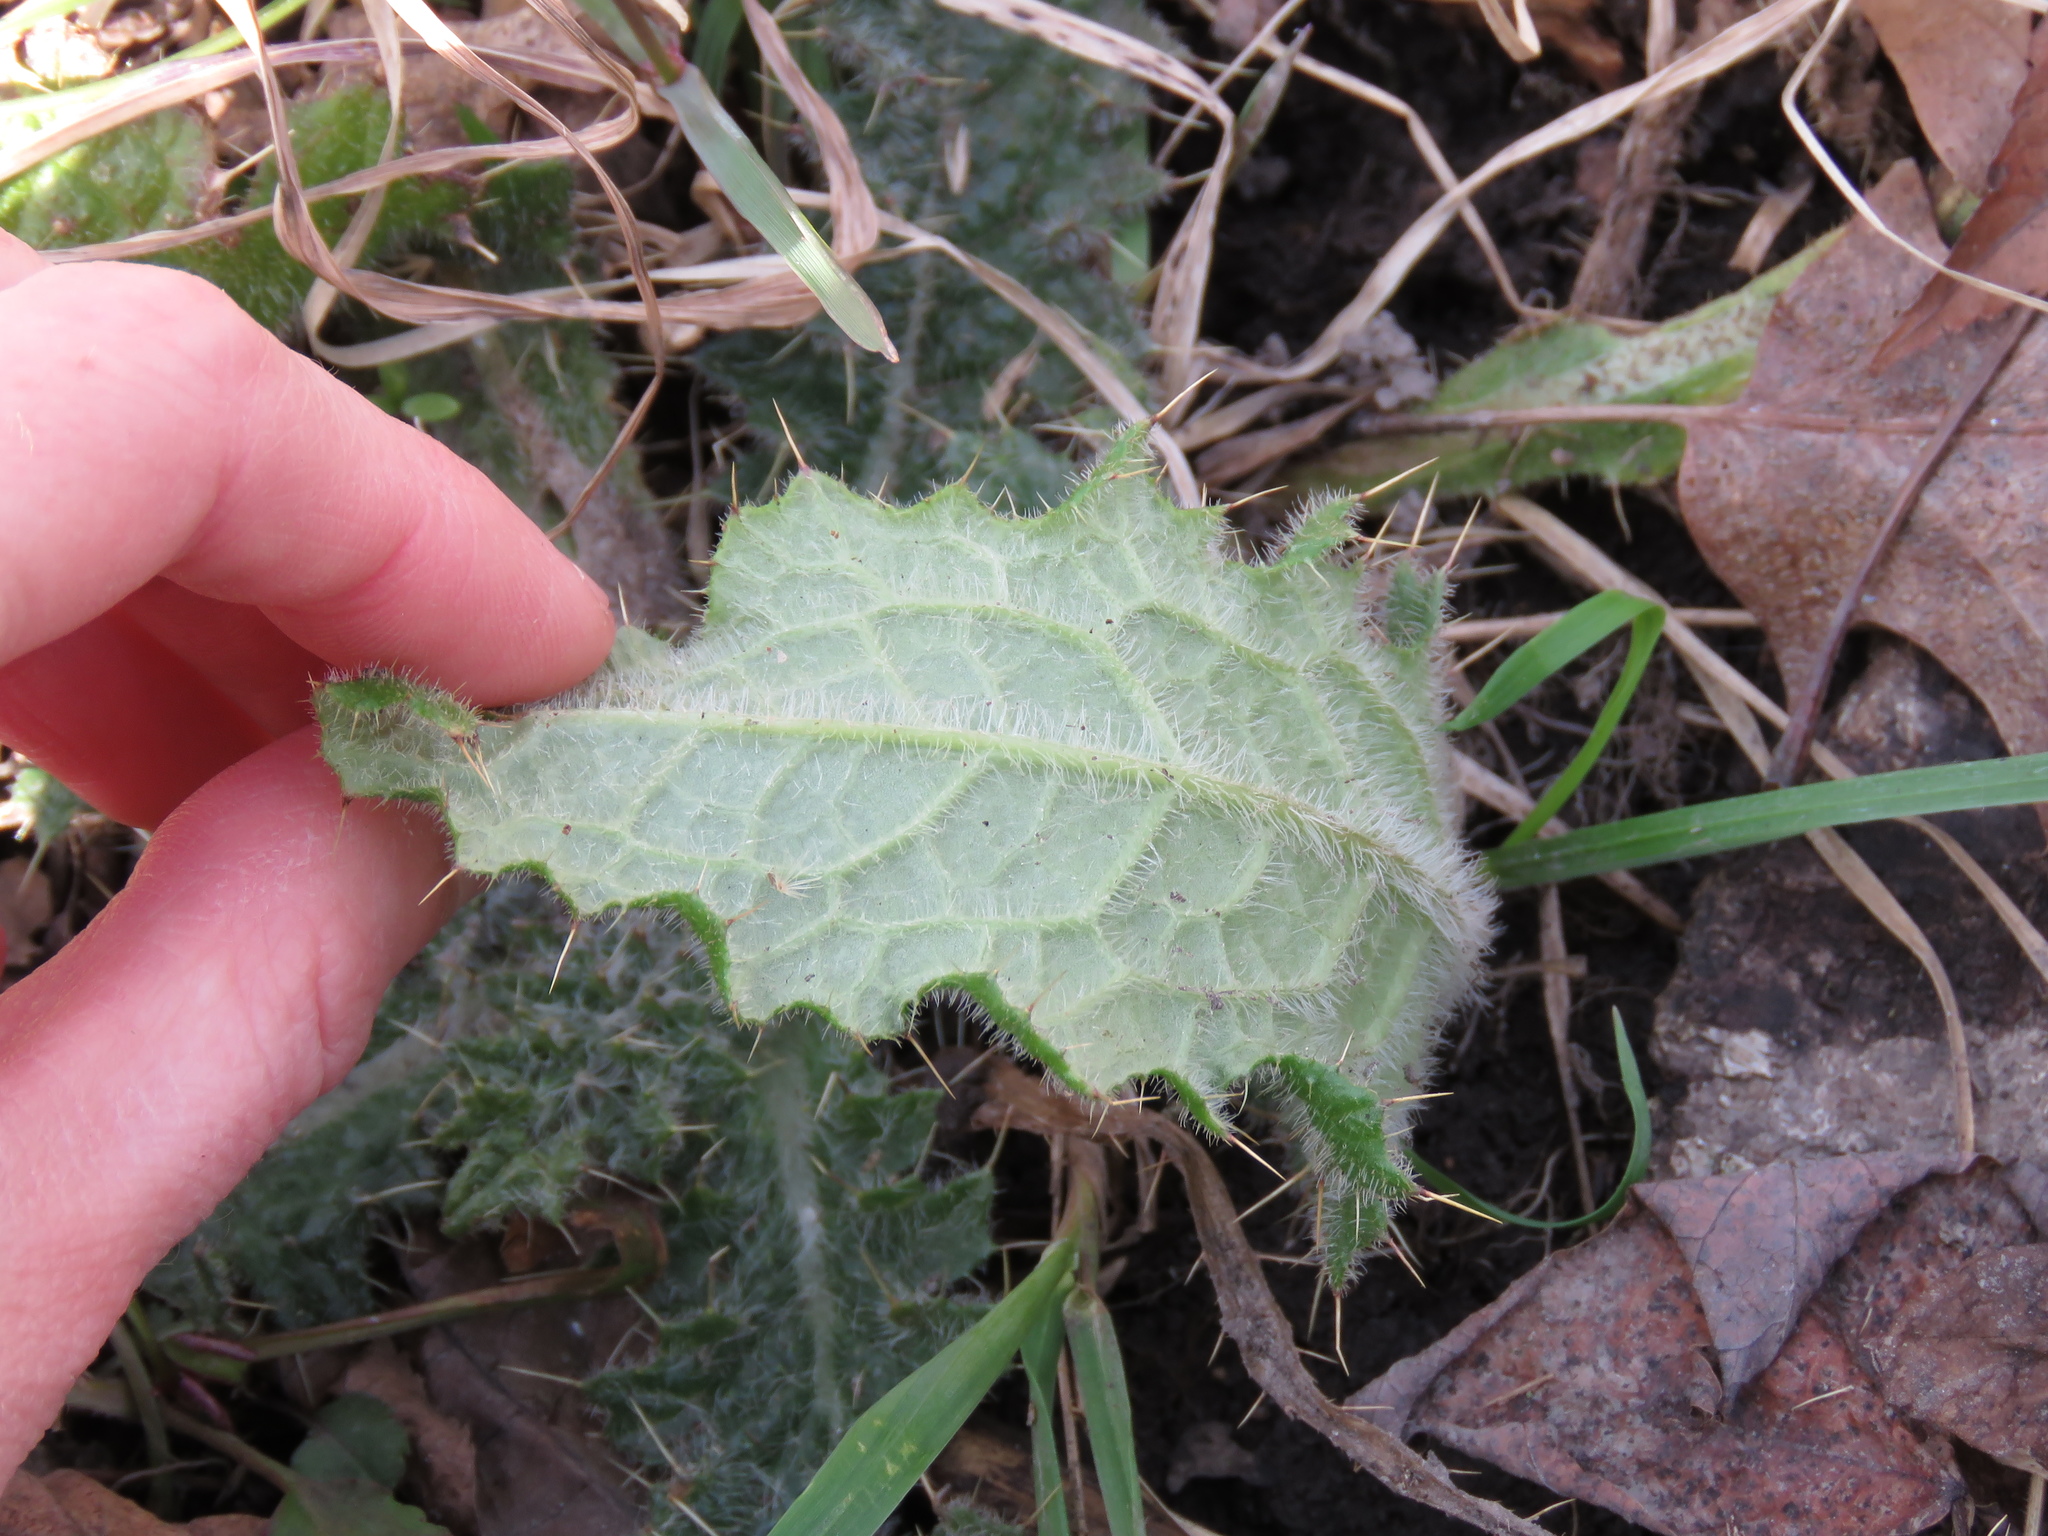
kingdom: Plantae
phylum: Tracheophyta
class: Magnoliopsida
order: Asterales
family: Asteraceae
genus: Cirsium
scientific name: Cirsium vulgare
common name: Bull thistle
